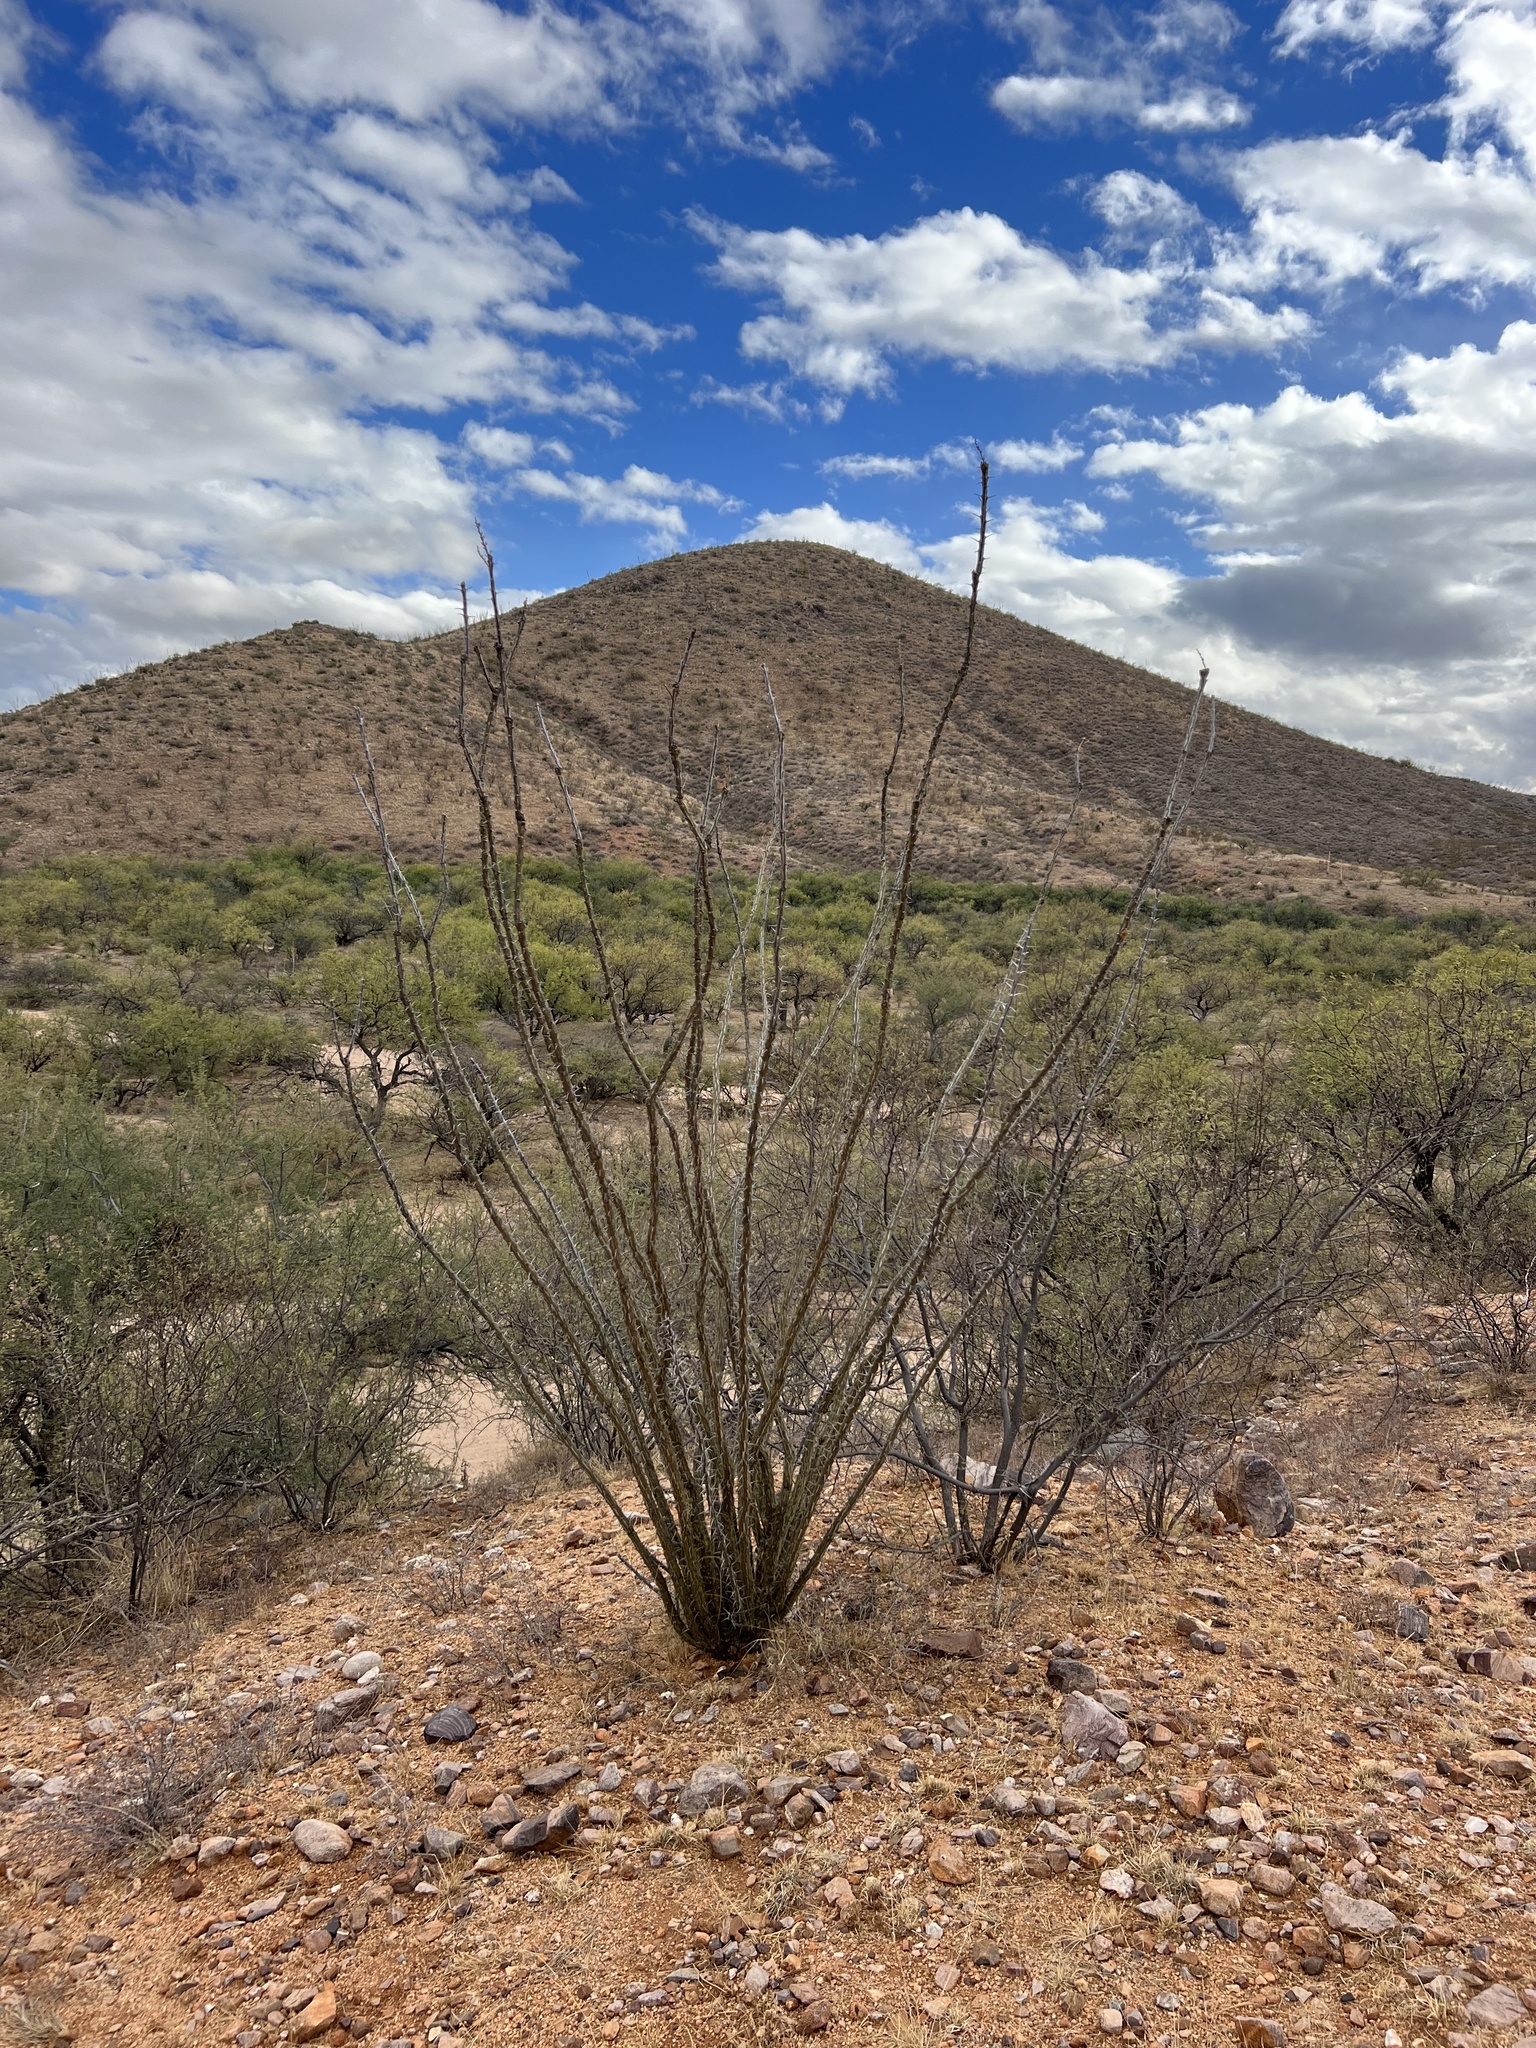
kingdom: Plantae
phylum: Tracheophyta
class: Magnoliopsida
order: Ericales
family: Fouquieriaceae
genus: Fouquieria
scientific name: Fouquieria splendens
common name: Vine-cactus
